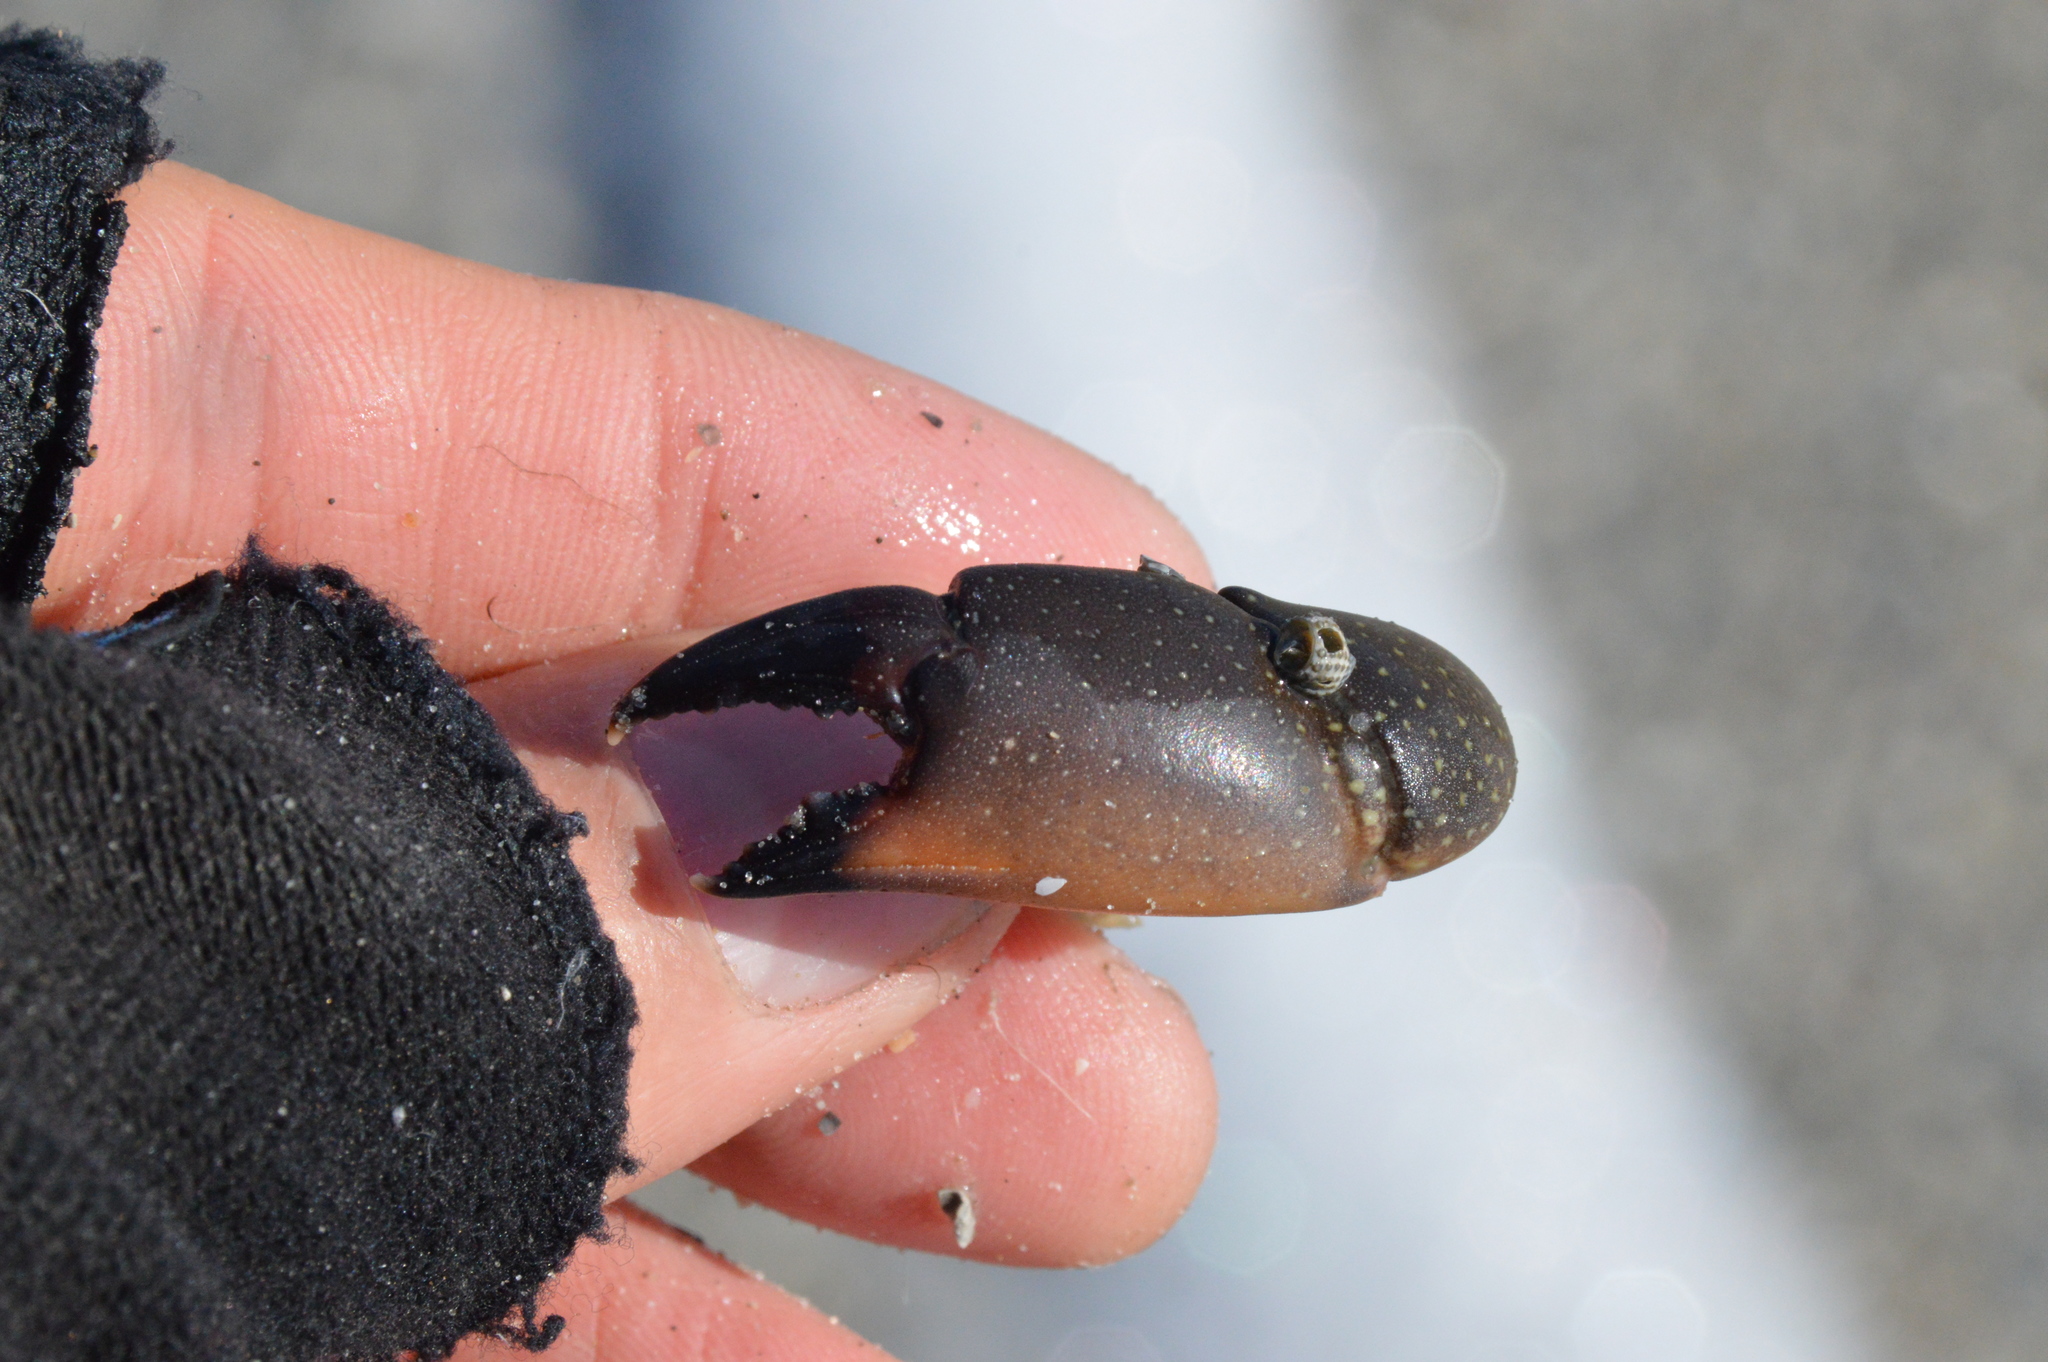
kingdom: Animalia
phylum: Arthropoda
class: Malacostraca
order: Decapoda
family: Menippidae
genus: Menippe
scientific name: Menippe adina
